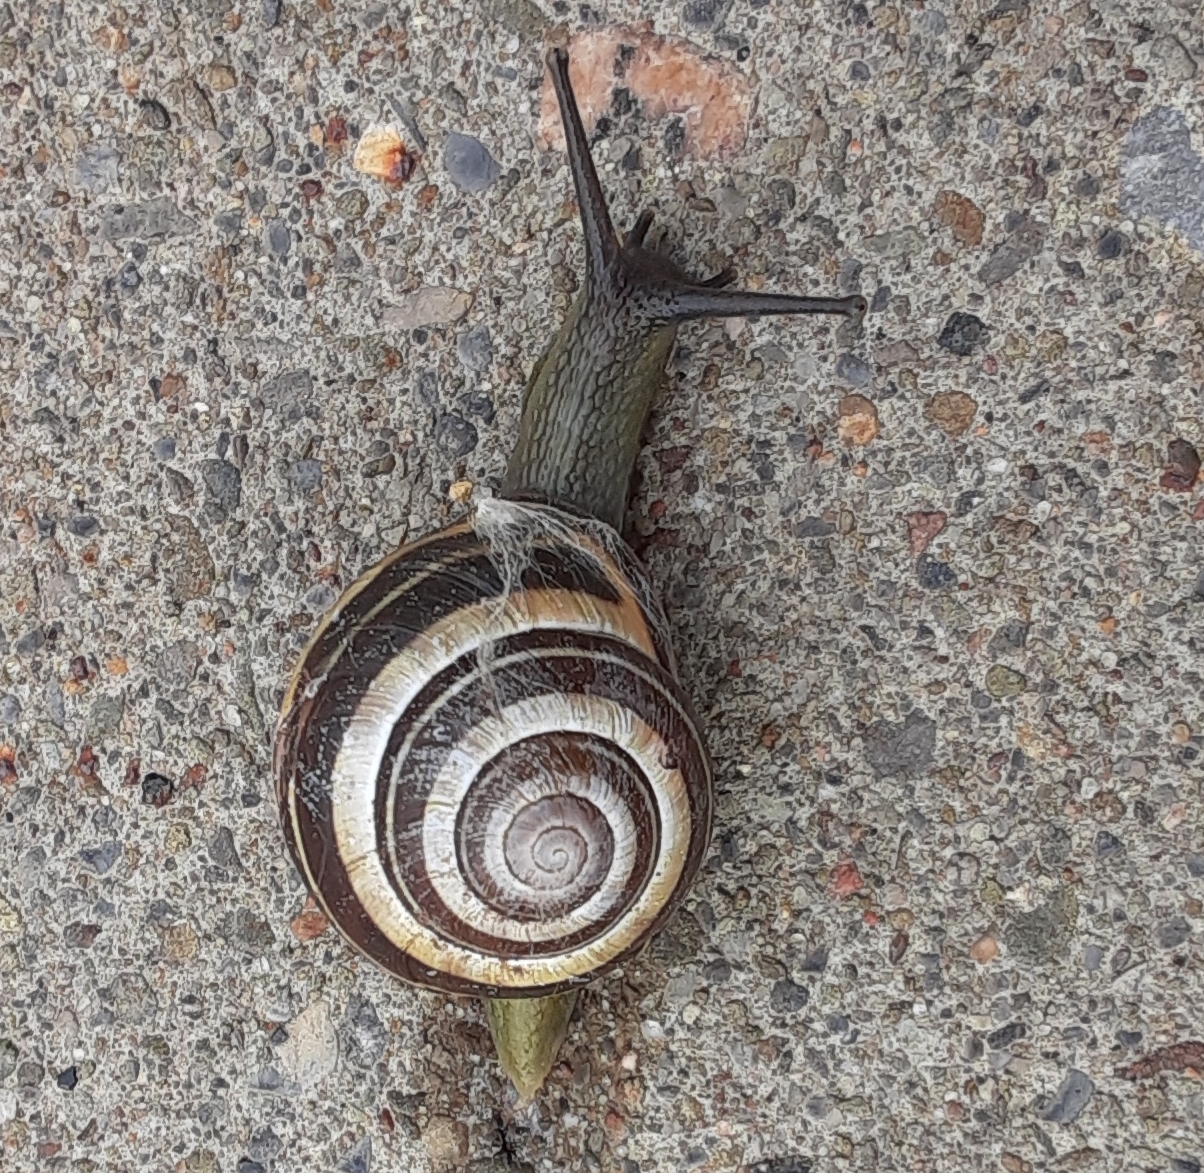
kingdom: Animalia
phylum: Mollusca
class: Gastropoda
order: Stylommatophora
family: Helicidae
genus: Cepaea
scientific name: Cepaea nemoralis
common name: Grovesnail
